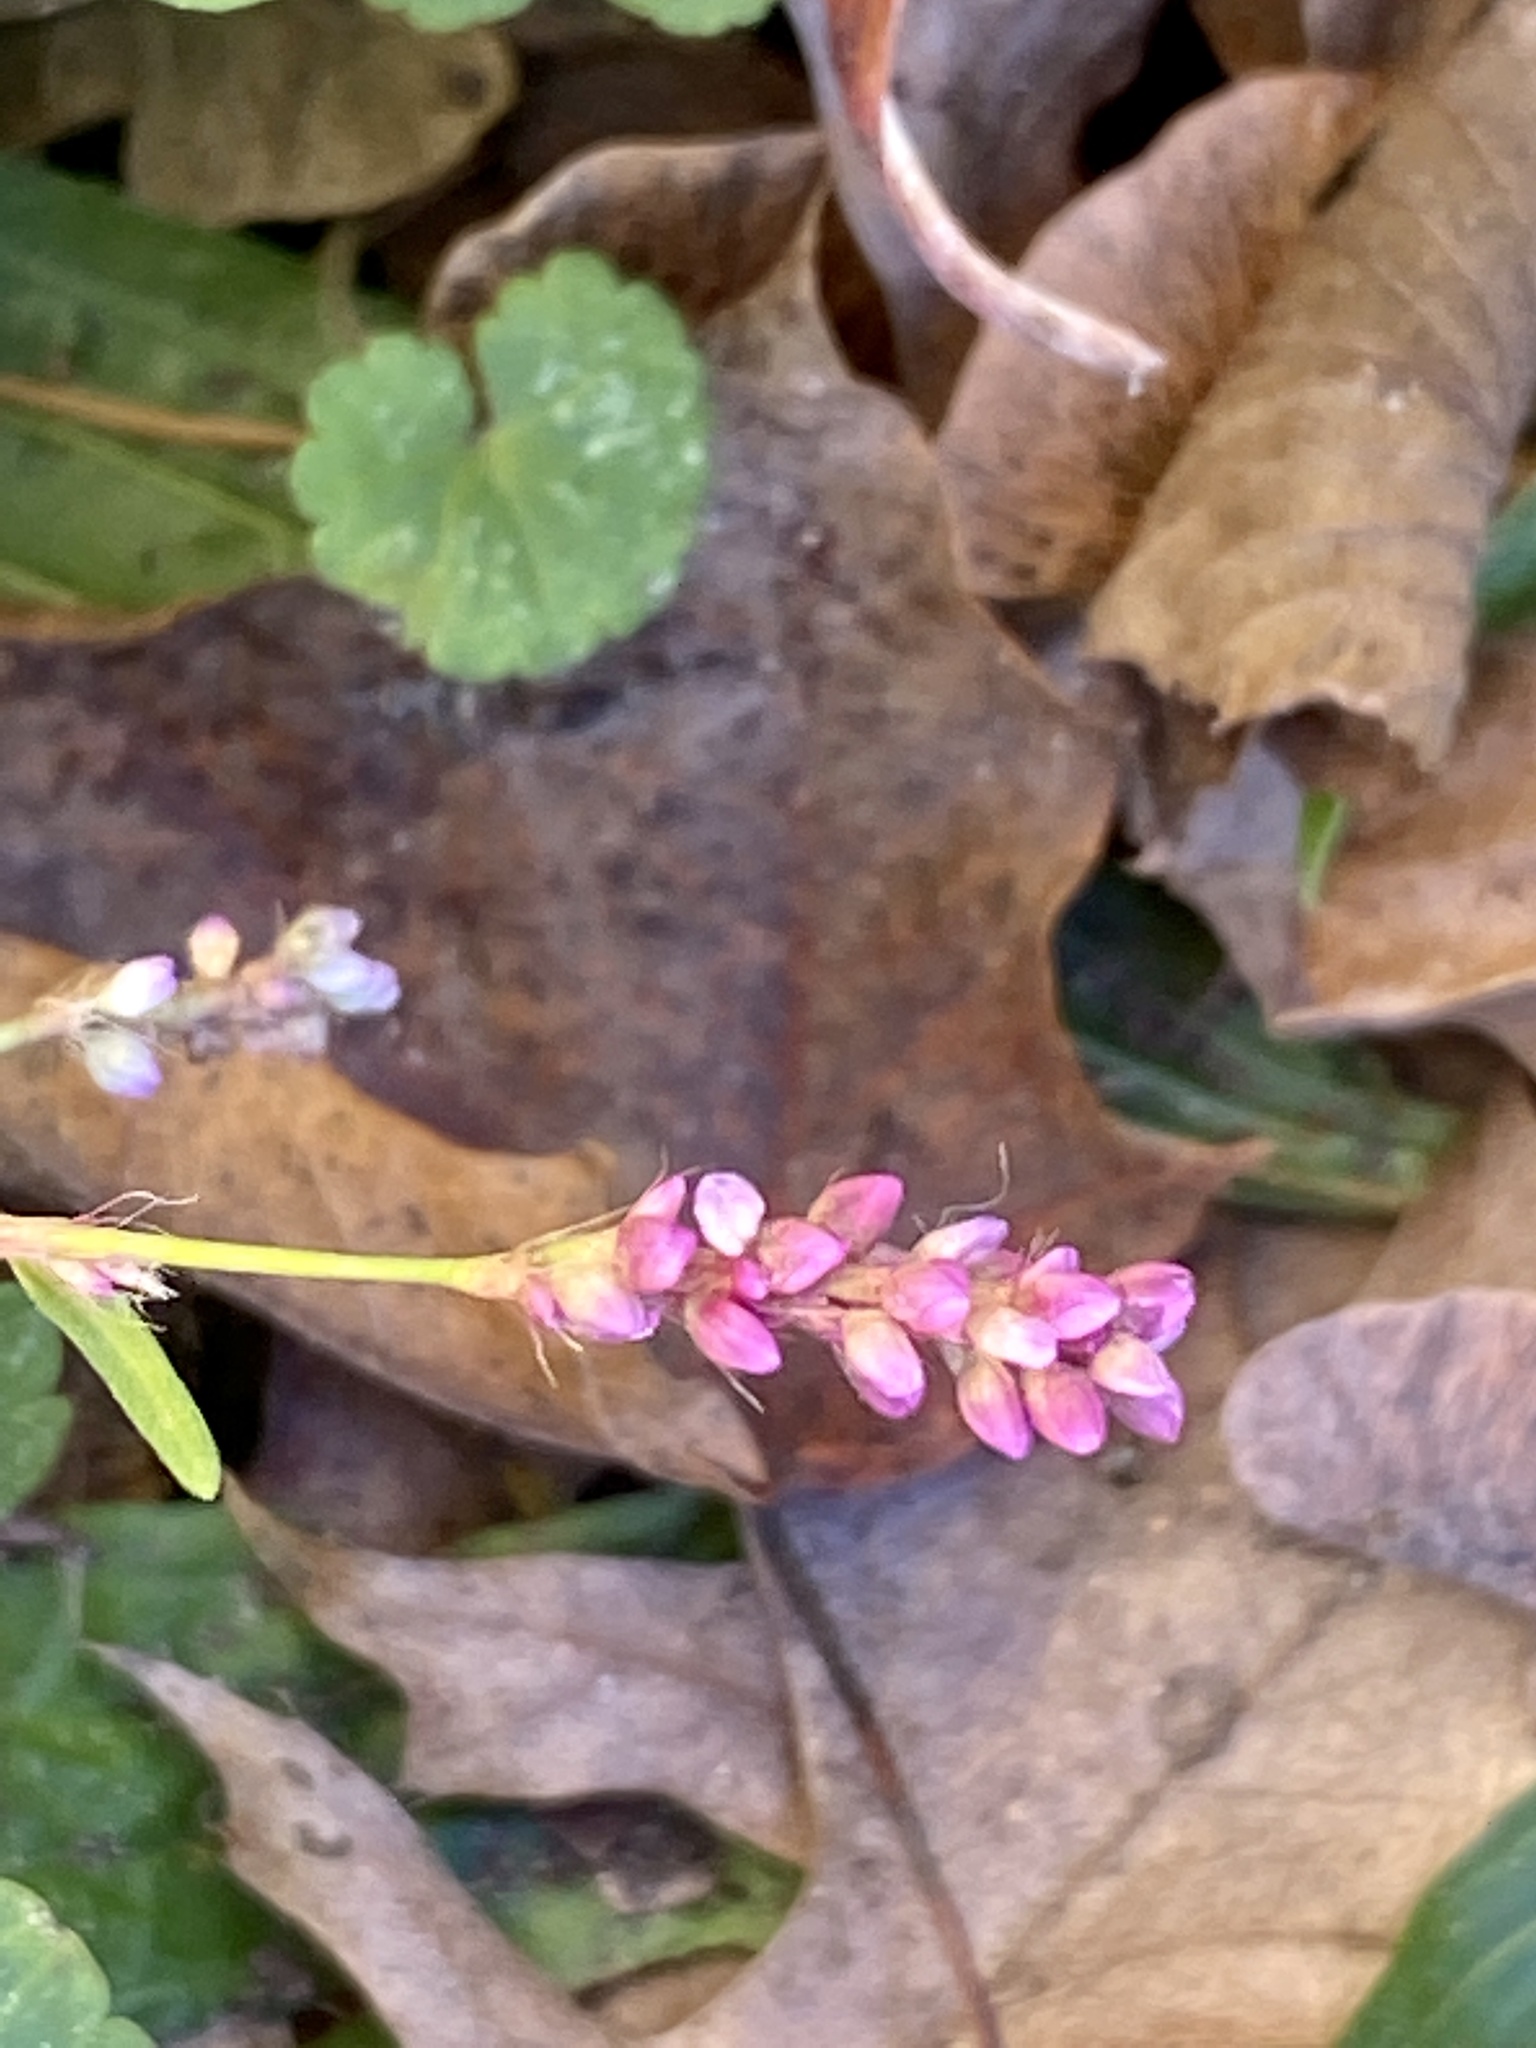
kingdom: Plantae
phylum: Tracheophyta
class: Magnoliopsida
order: Caryophyllales
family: Polygonaceae
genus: Persicaria
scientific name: Persicaria longiseta
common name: Bristly lady's-thumb
